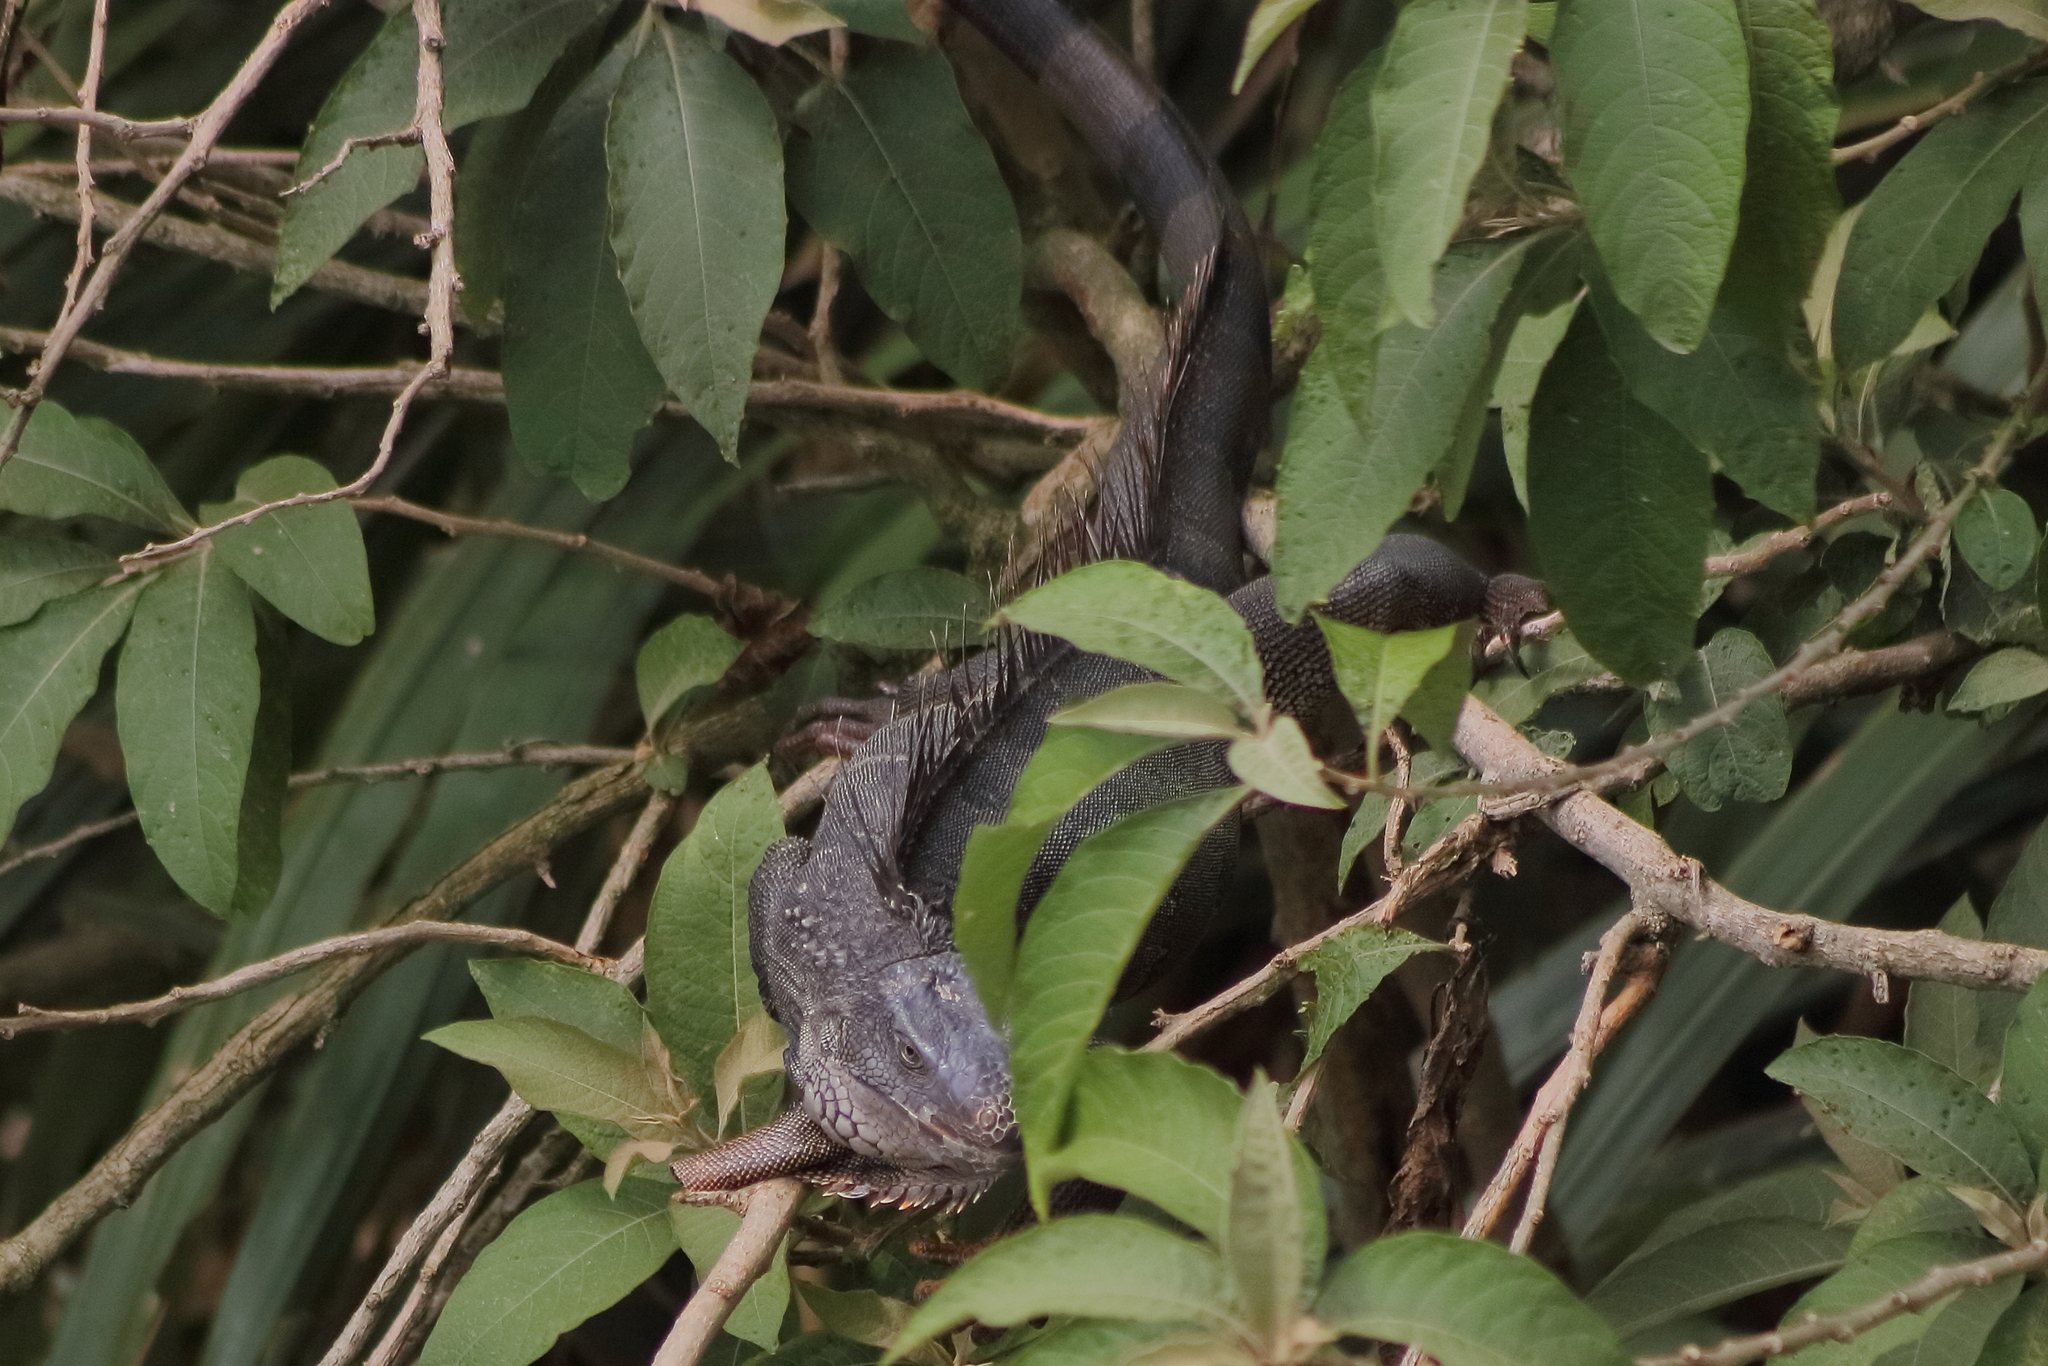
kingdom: Animalia
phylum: Chordata
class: Squamata
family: Iguanidae
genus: Iguana
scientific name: Iguana iguana
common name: Green iguana
